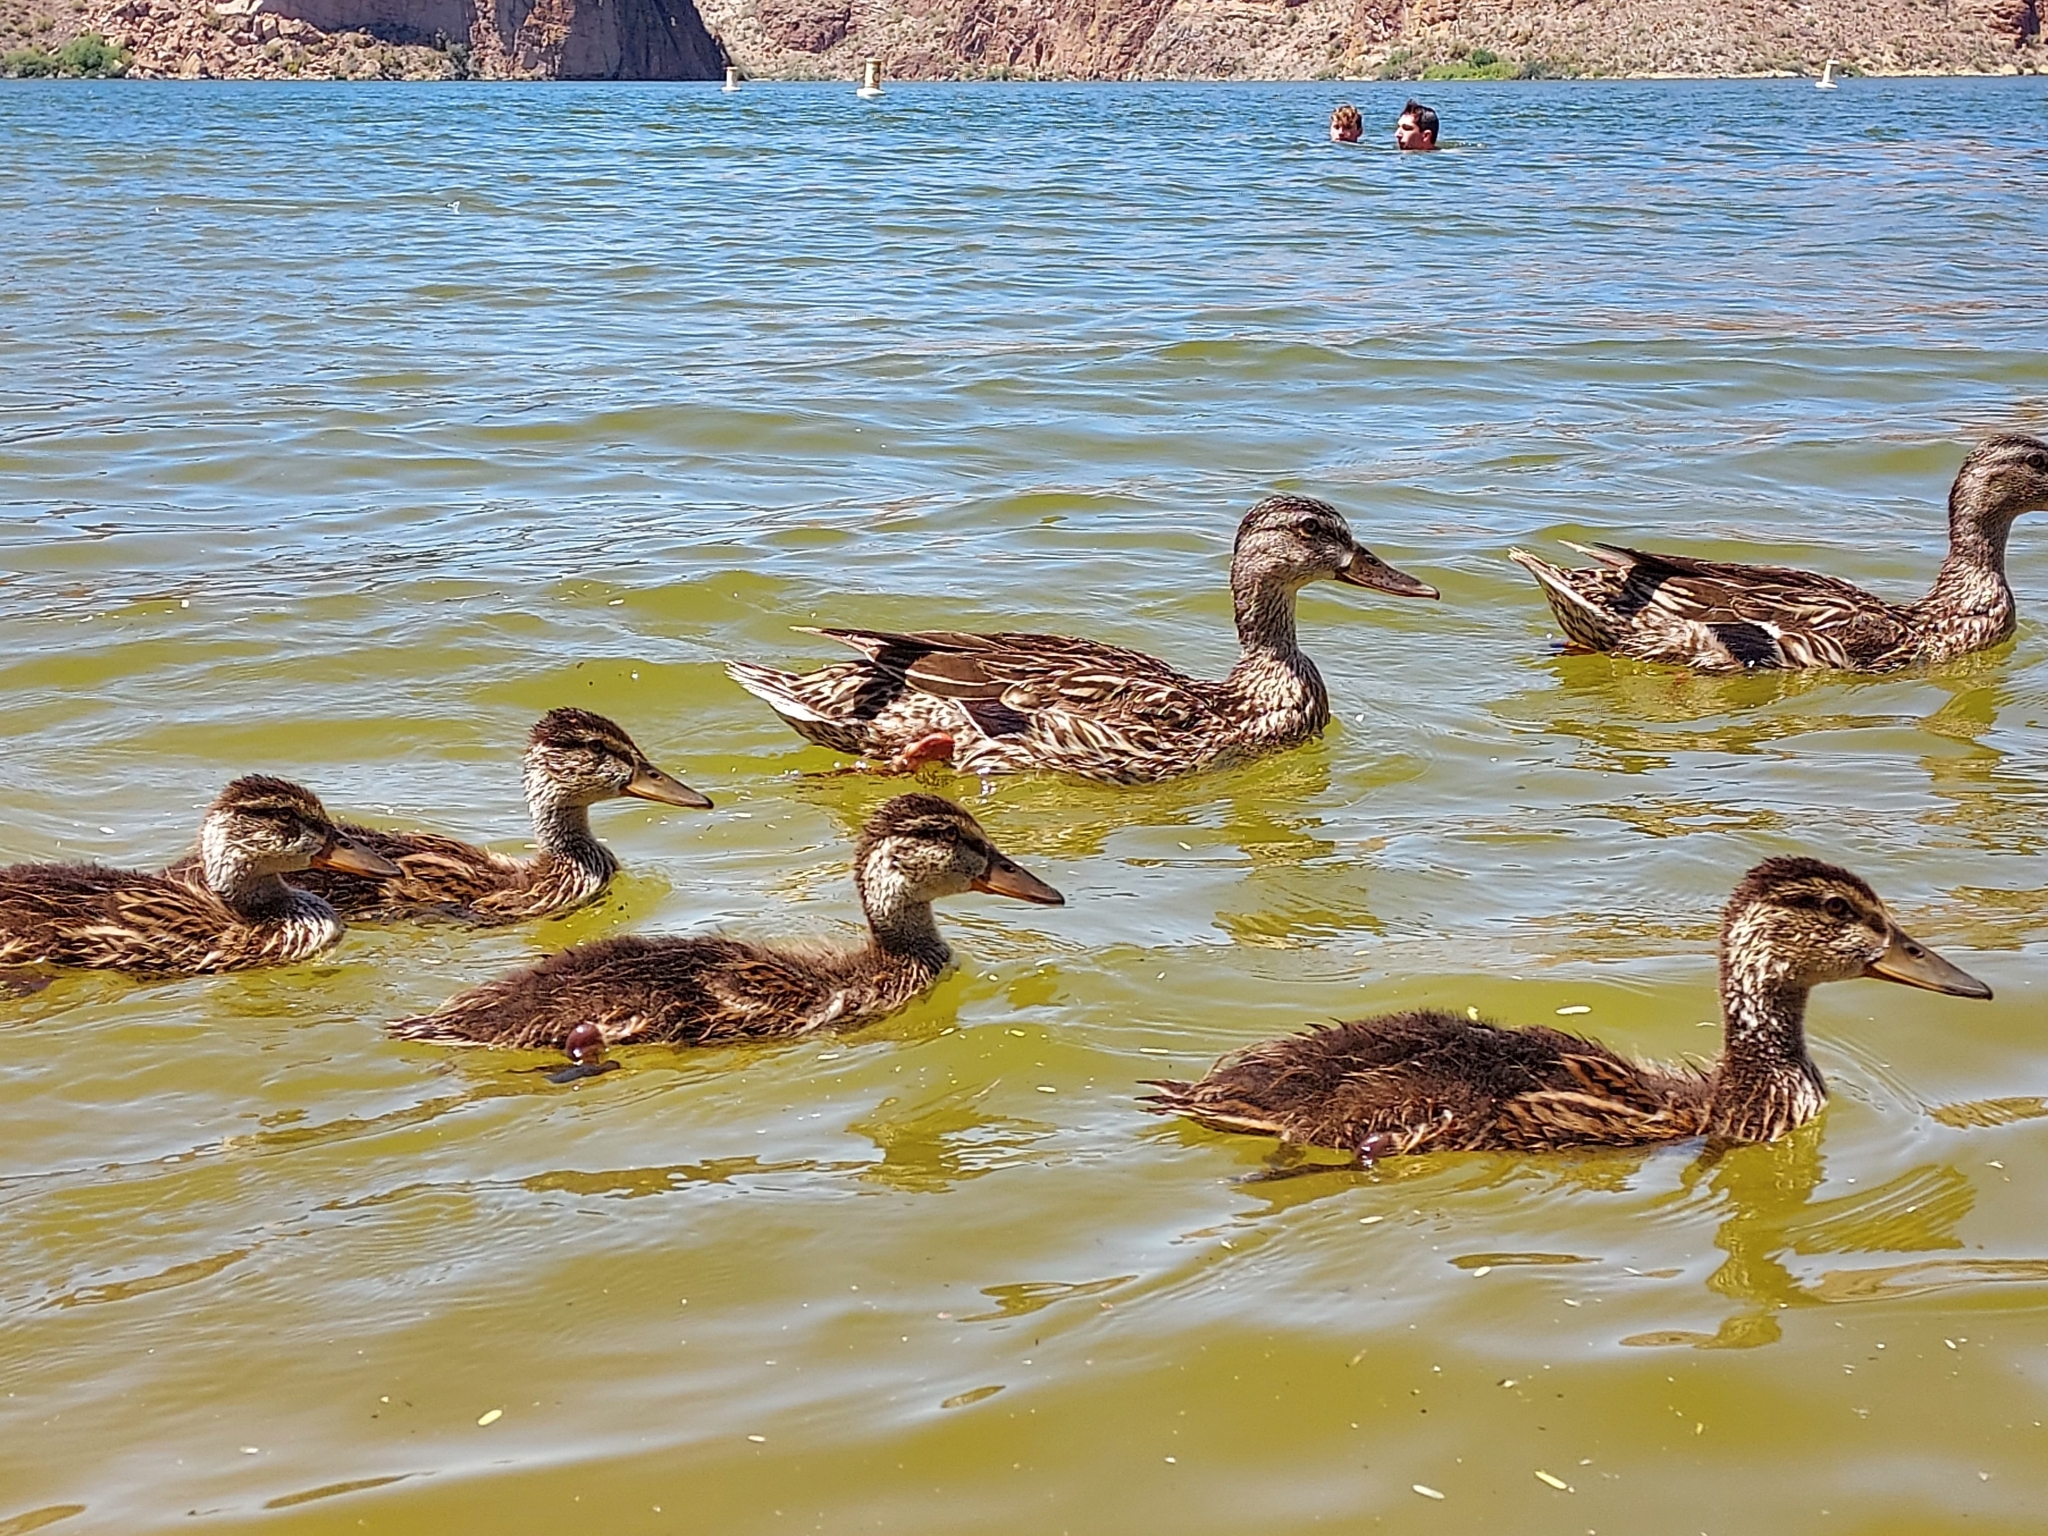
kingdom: Animalia
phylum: Chordata
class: Aves
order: Anseriformes
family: Anatidae
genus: Anas
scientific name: Anas platyrhynchos
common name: Mallard
